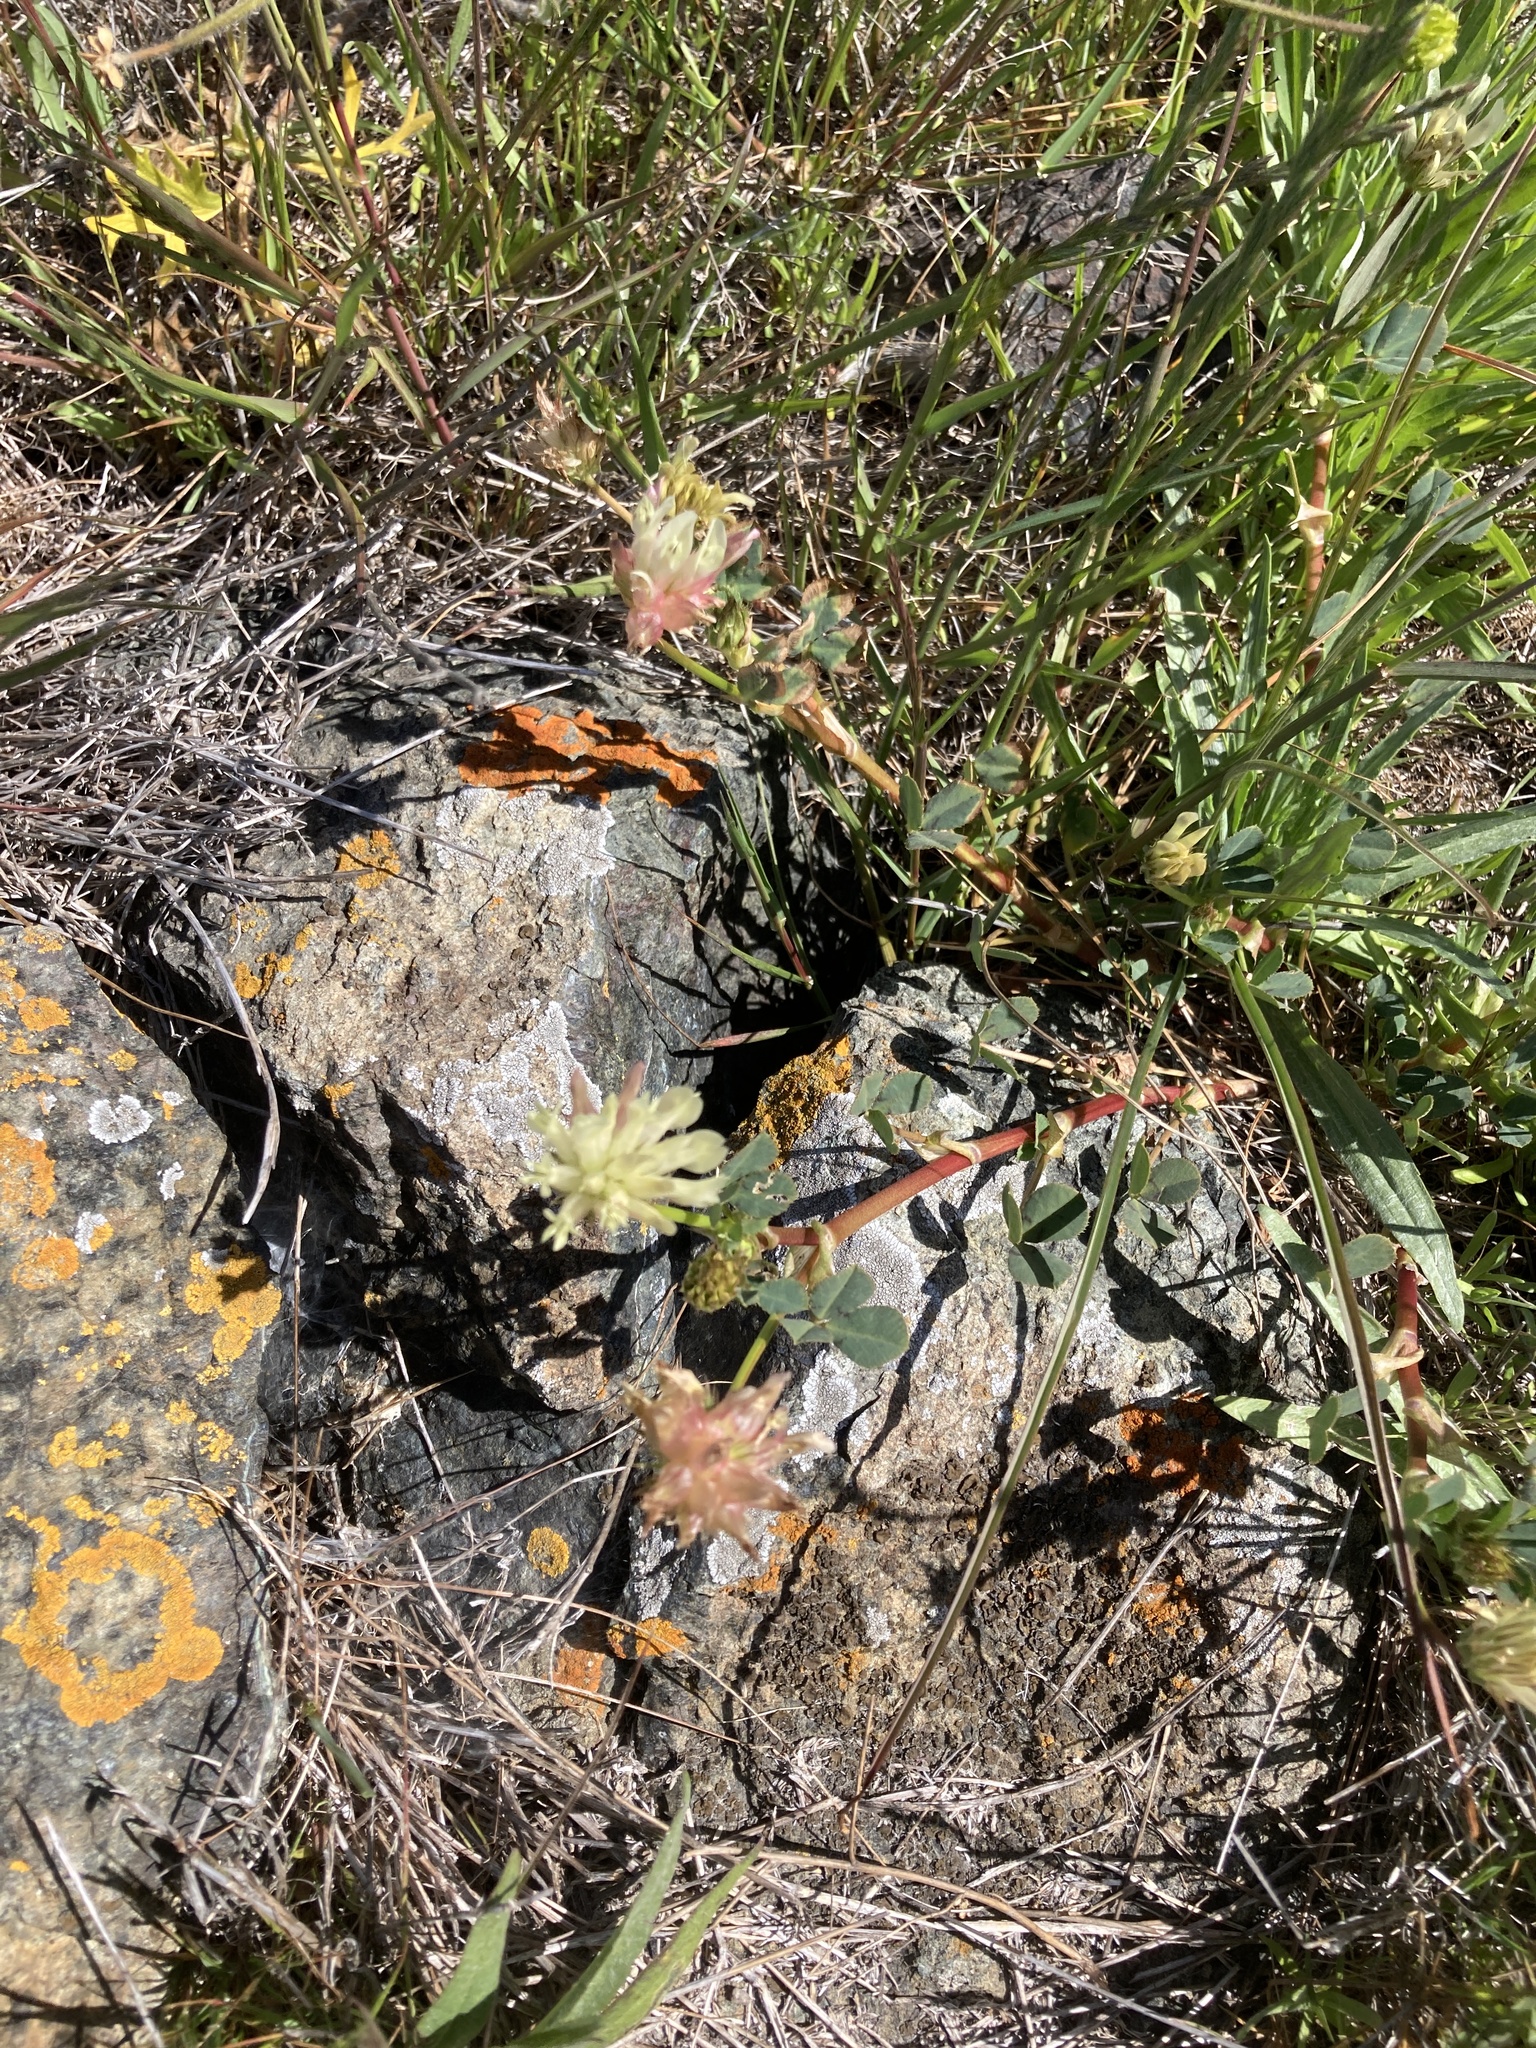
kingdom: Plantae
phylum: Tracheophyta
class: Magnoliopsida
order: Fabales
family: Fabaceae
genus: Trifolium
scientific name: Trifolium fucatum
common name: Puff clover
